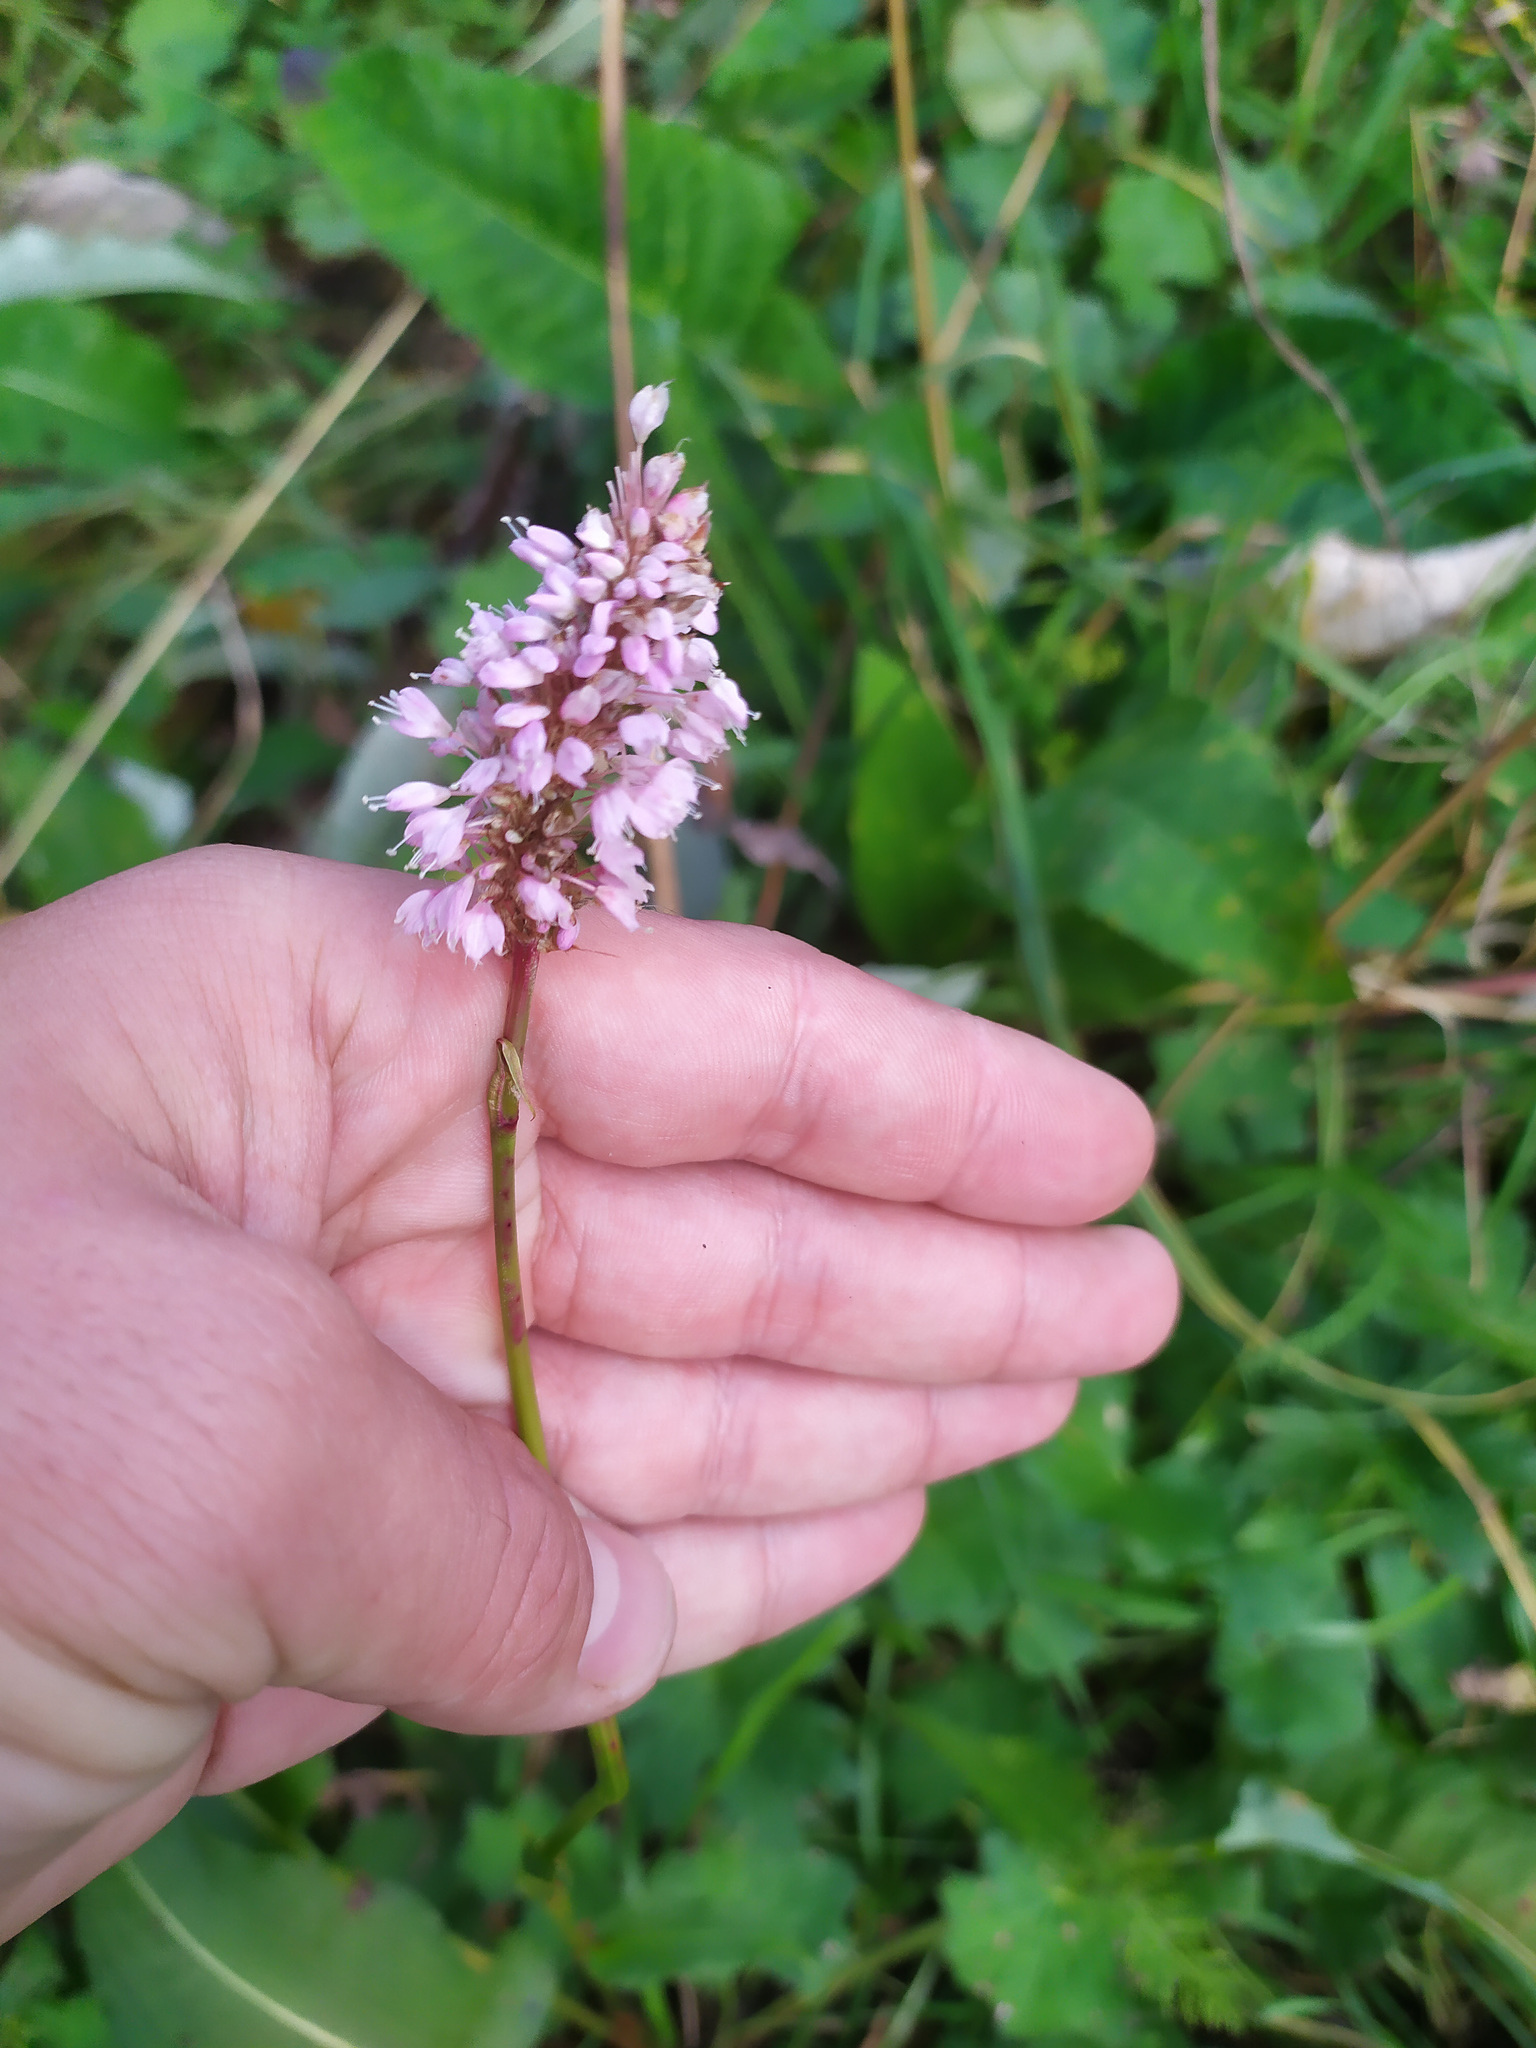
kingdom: Plantae
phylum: Tracheophyta
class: Magnoliopsida
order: Caryophyllales
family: Polygonaceae
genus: Bistorta
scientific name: Bistorta officinalis
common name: Common bistort
